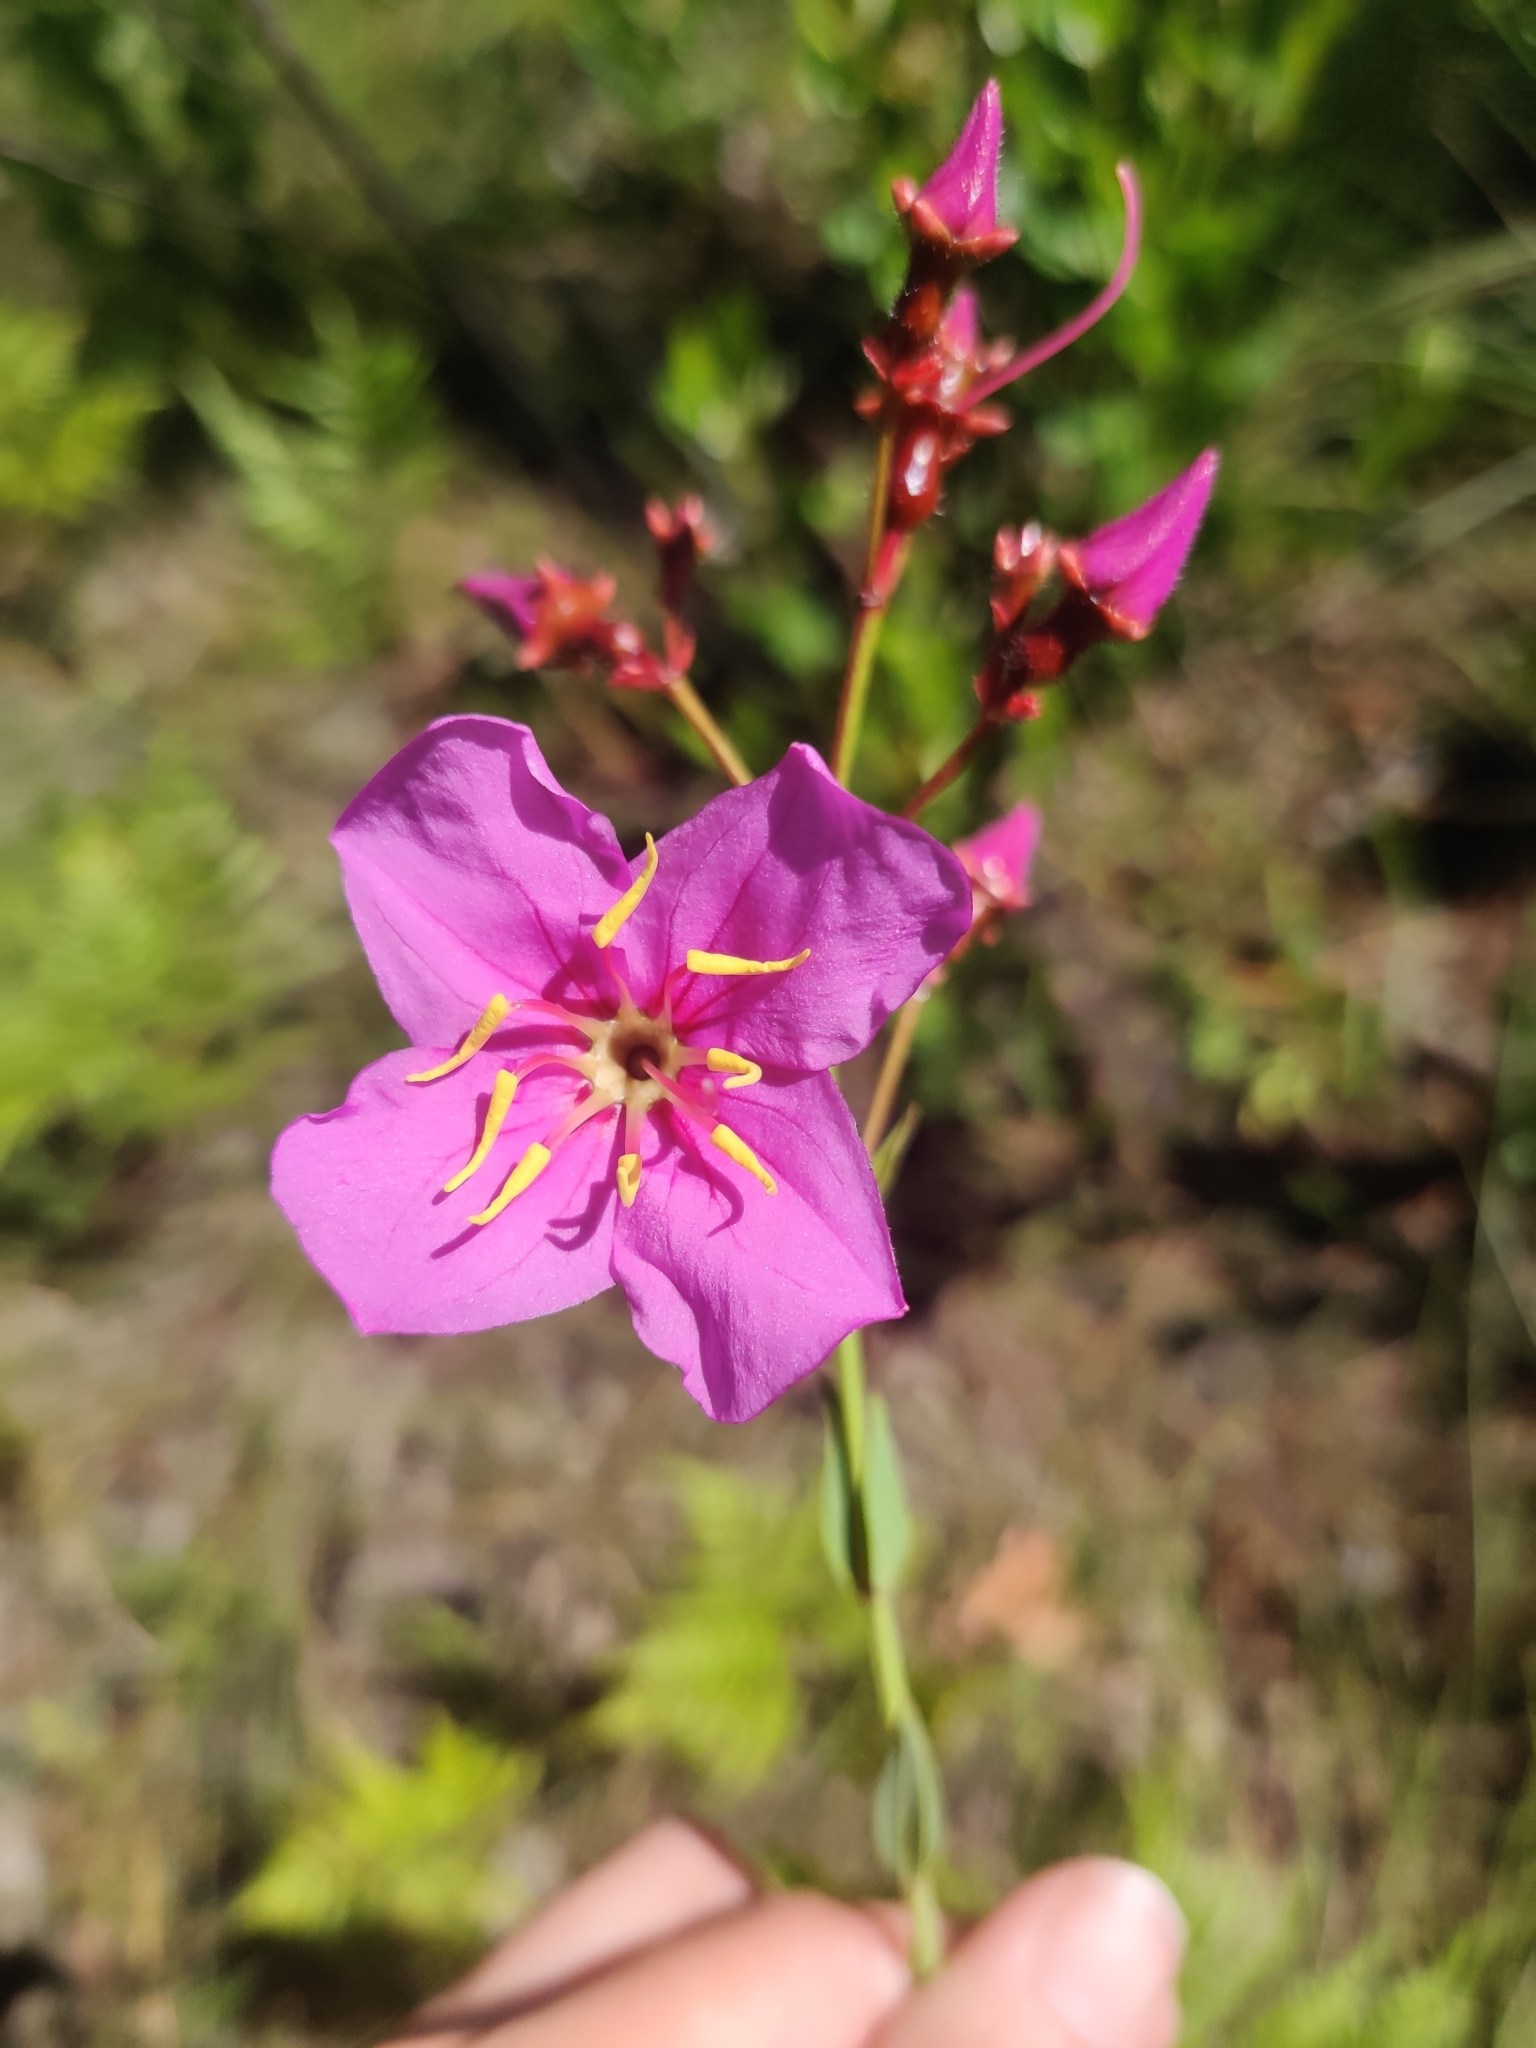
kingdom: Plantae
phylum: Tracheophyta
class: Magnoliopsida
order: Myrtales
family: Melastomataceae
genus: Rhexia
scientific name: Rhexia alifanus
